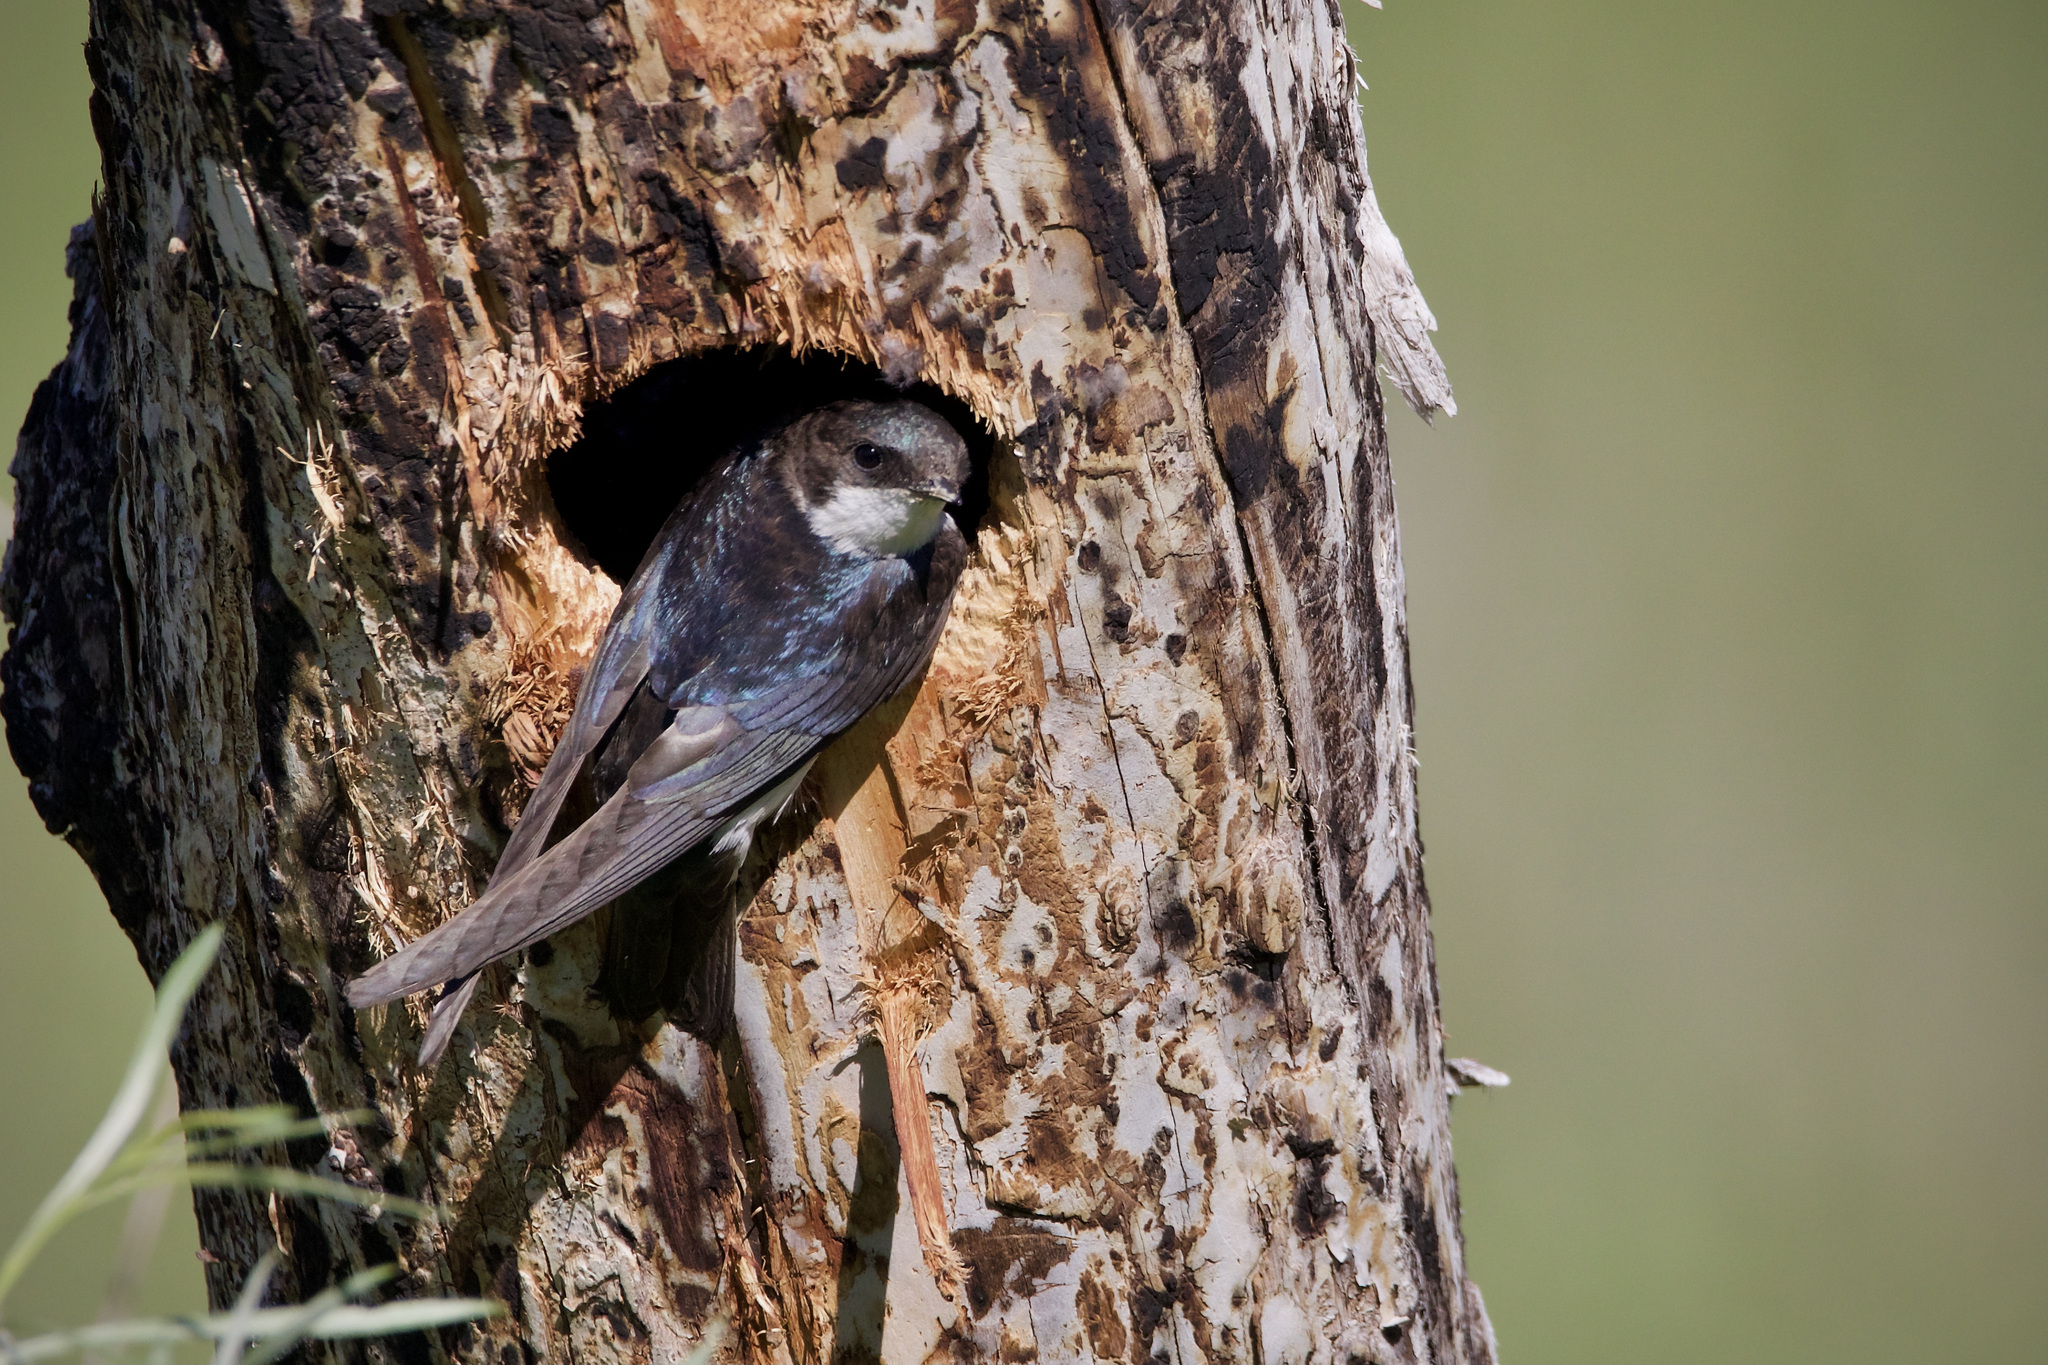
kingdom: Animalia
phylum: Chordata
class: Aves
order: Passeriformes
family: Hirundinidae
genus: Tachycineta
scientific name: Tachycineta bicolor
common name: Tree swallow
